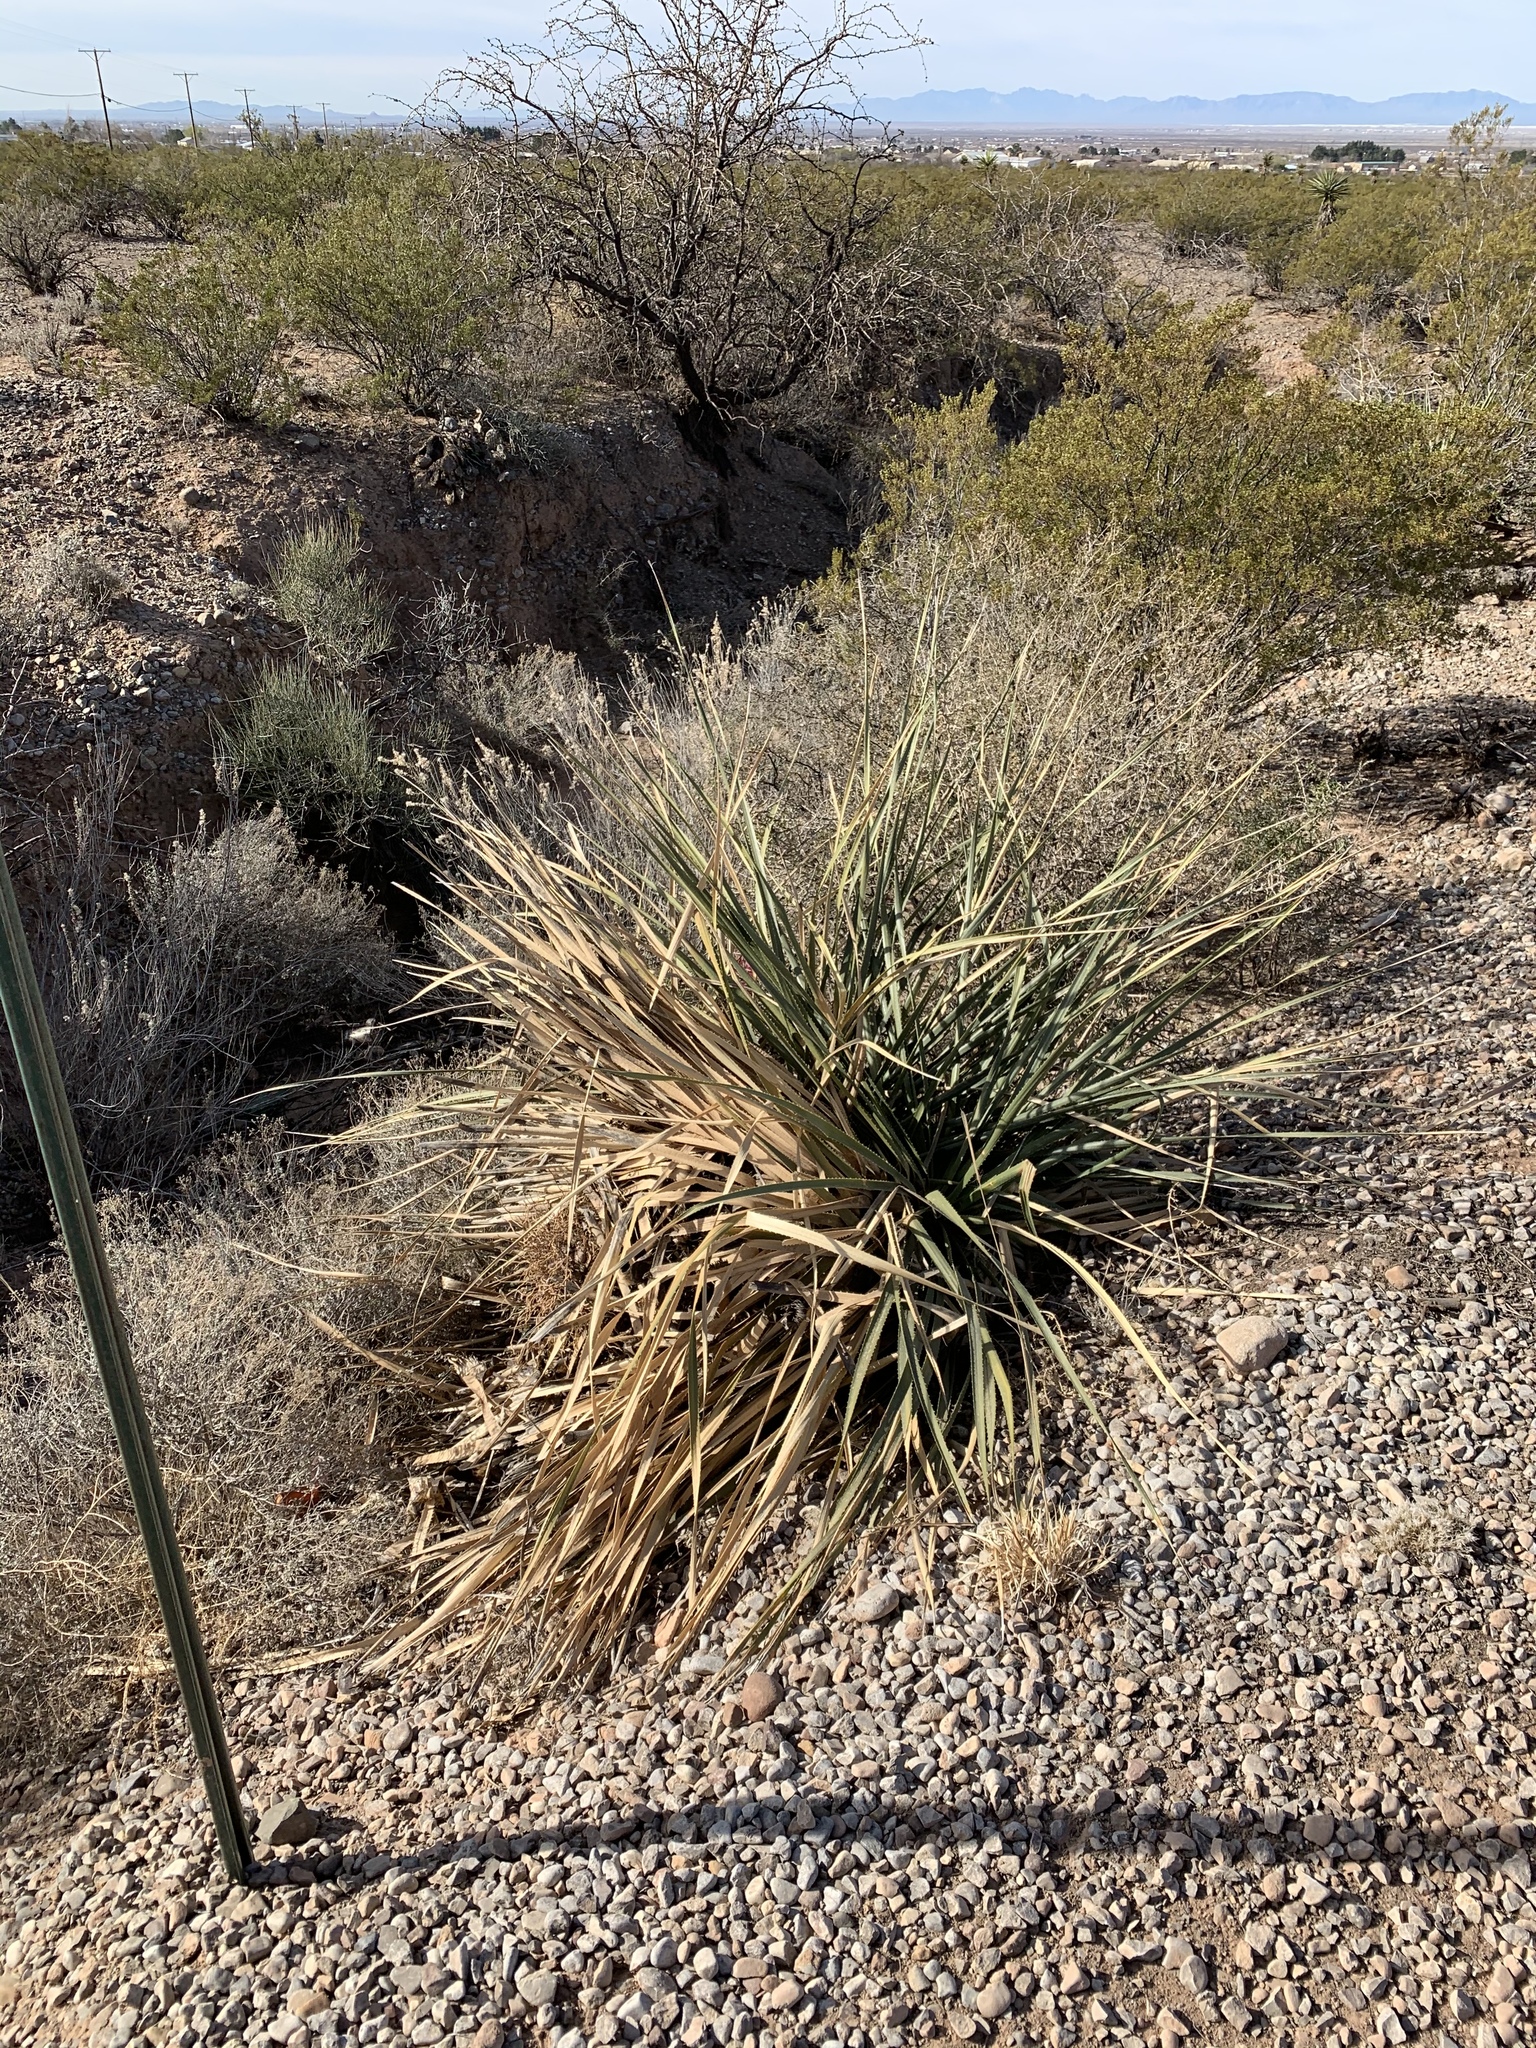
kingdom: Plantae
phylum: Tracheophyta
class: Liliopsida
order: Asparagales
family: Asparagaceae
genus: Dasylirion
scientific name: Dasylirion wheeleri
